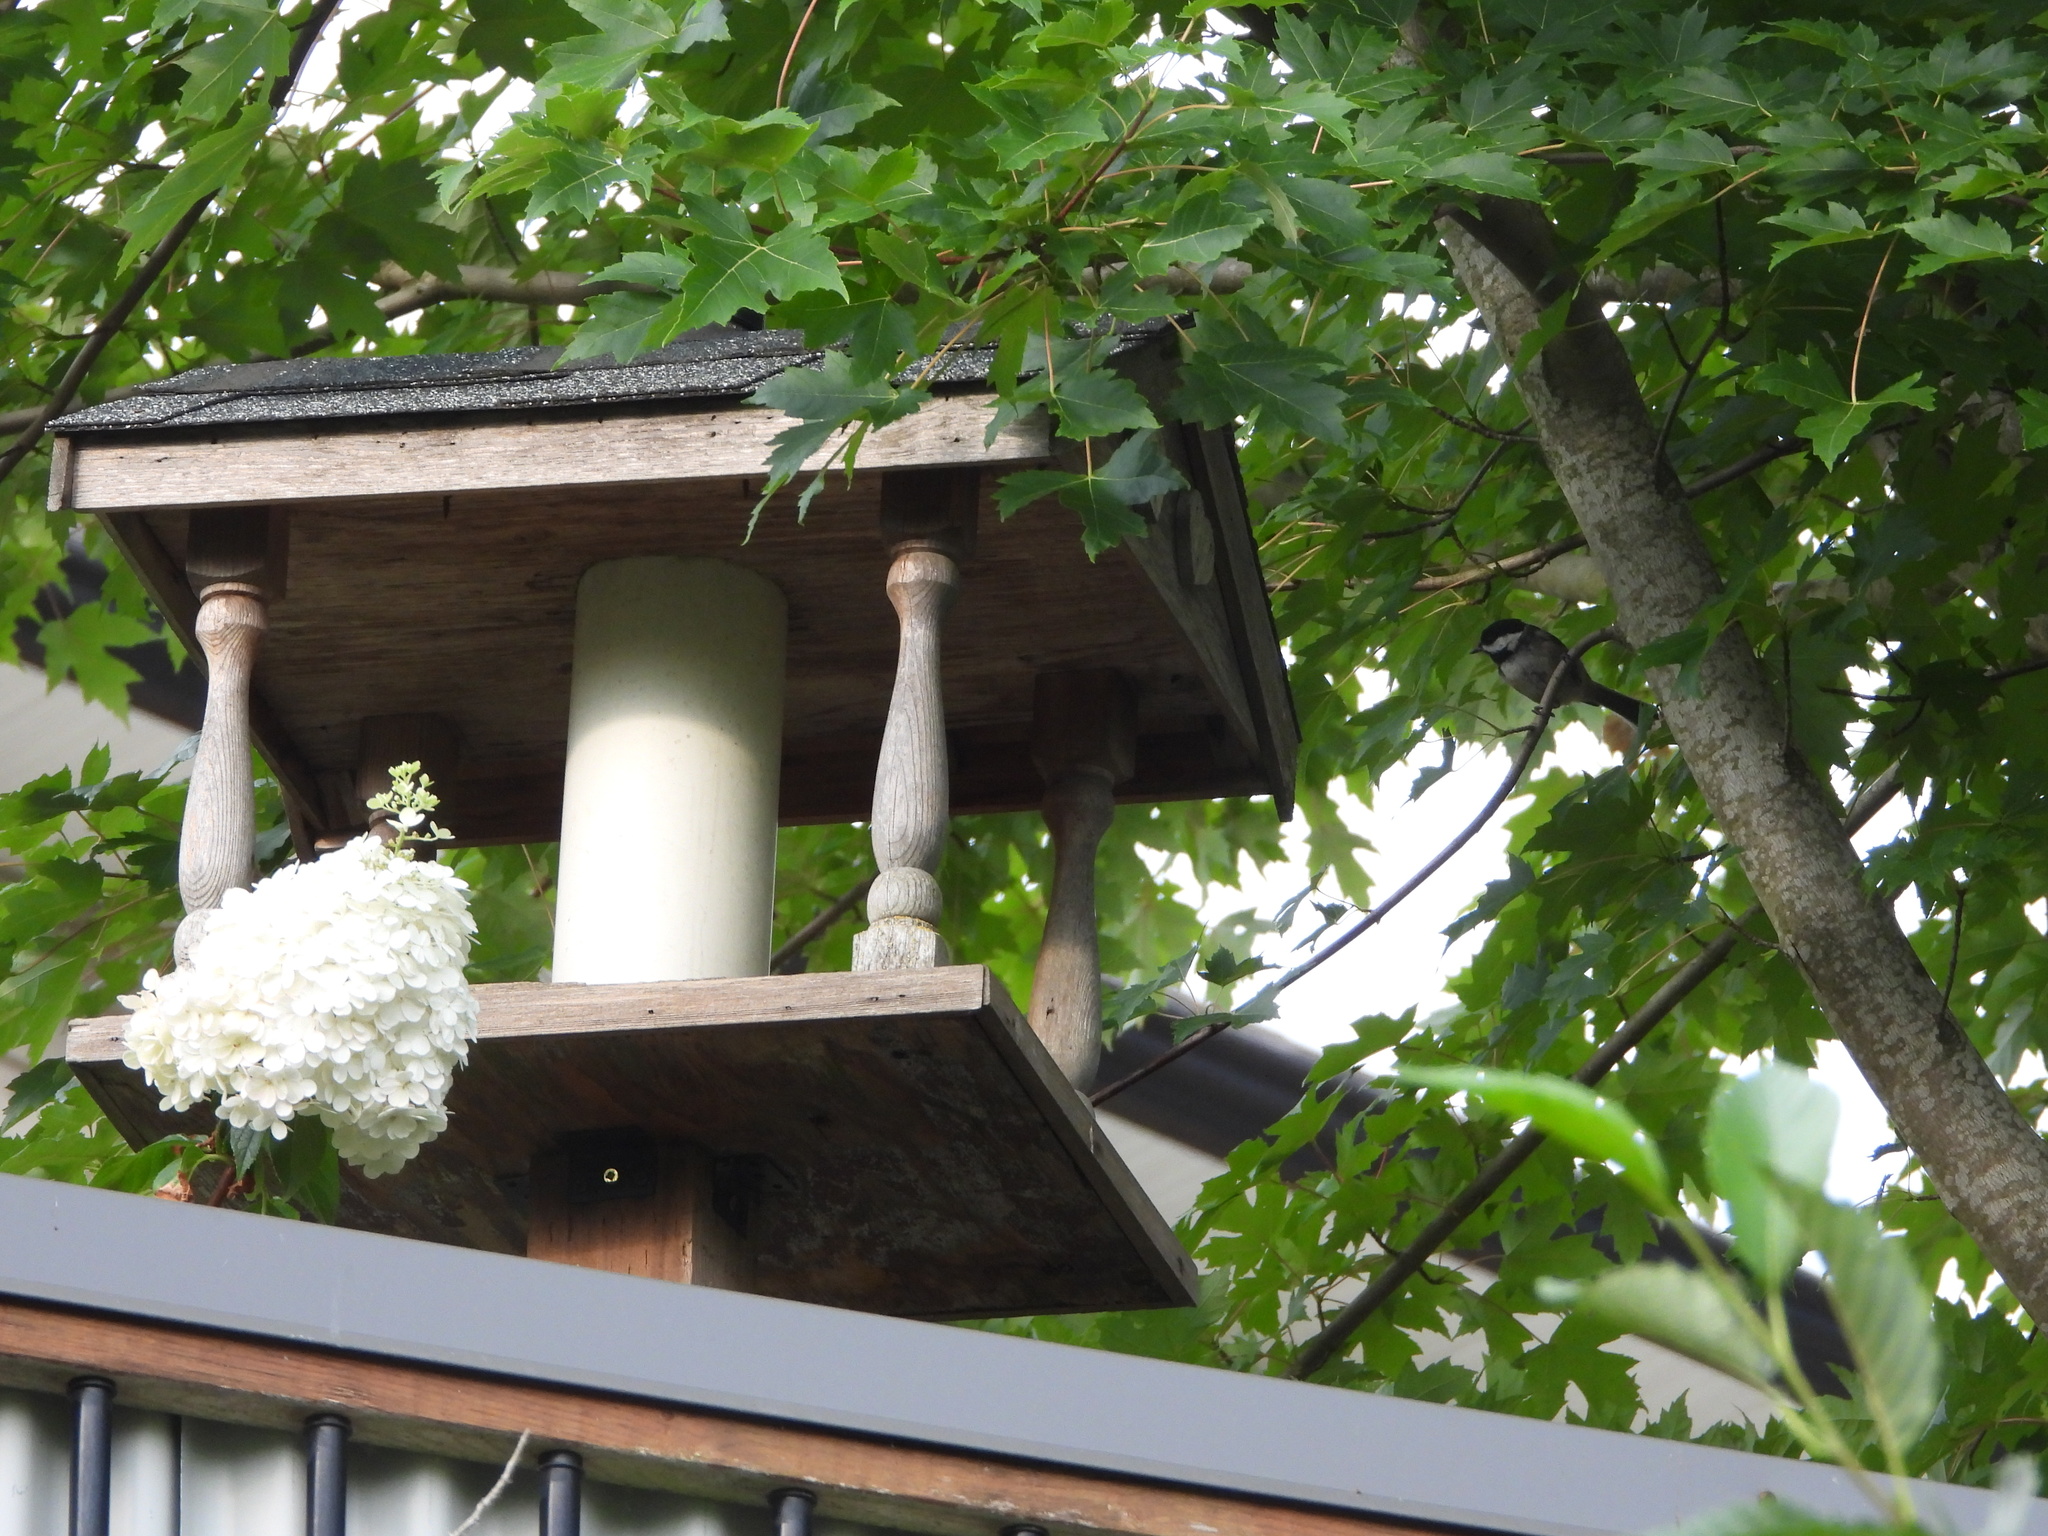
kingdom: Animalia
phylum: Chordata
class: Aves
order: Passeriformes
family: Paridae
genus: Poecile
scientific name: Poecile atricapillus
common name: Black-capped chickadee
